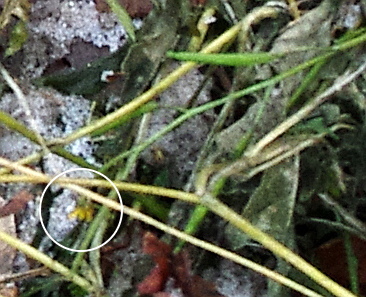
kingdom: Plantae
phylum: Tracheophyta
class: Magnoliopsida
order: Brassicales
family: Brassicaceae
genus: Erysimum
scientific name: Erysimum cheiranthoides
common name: Treacle mustard
